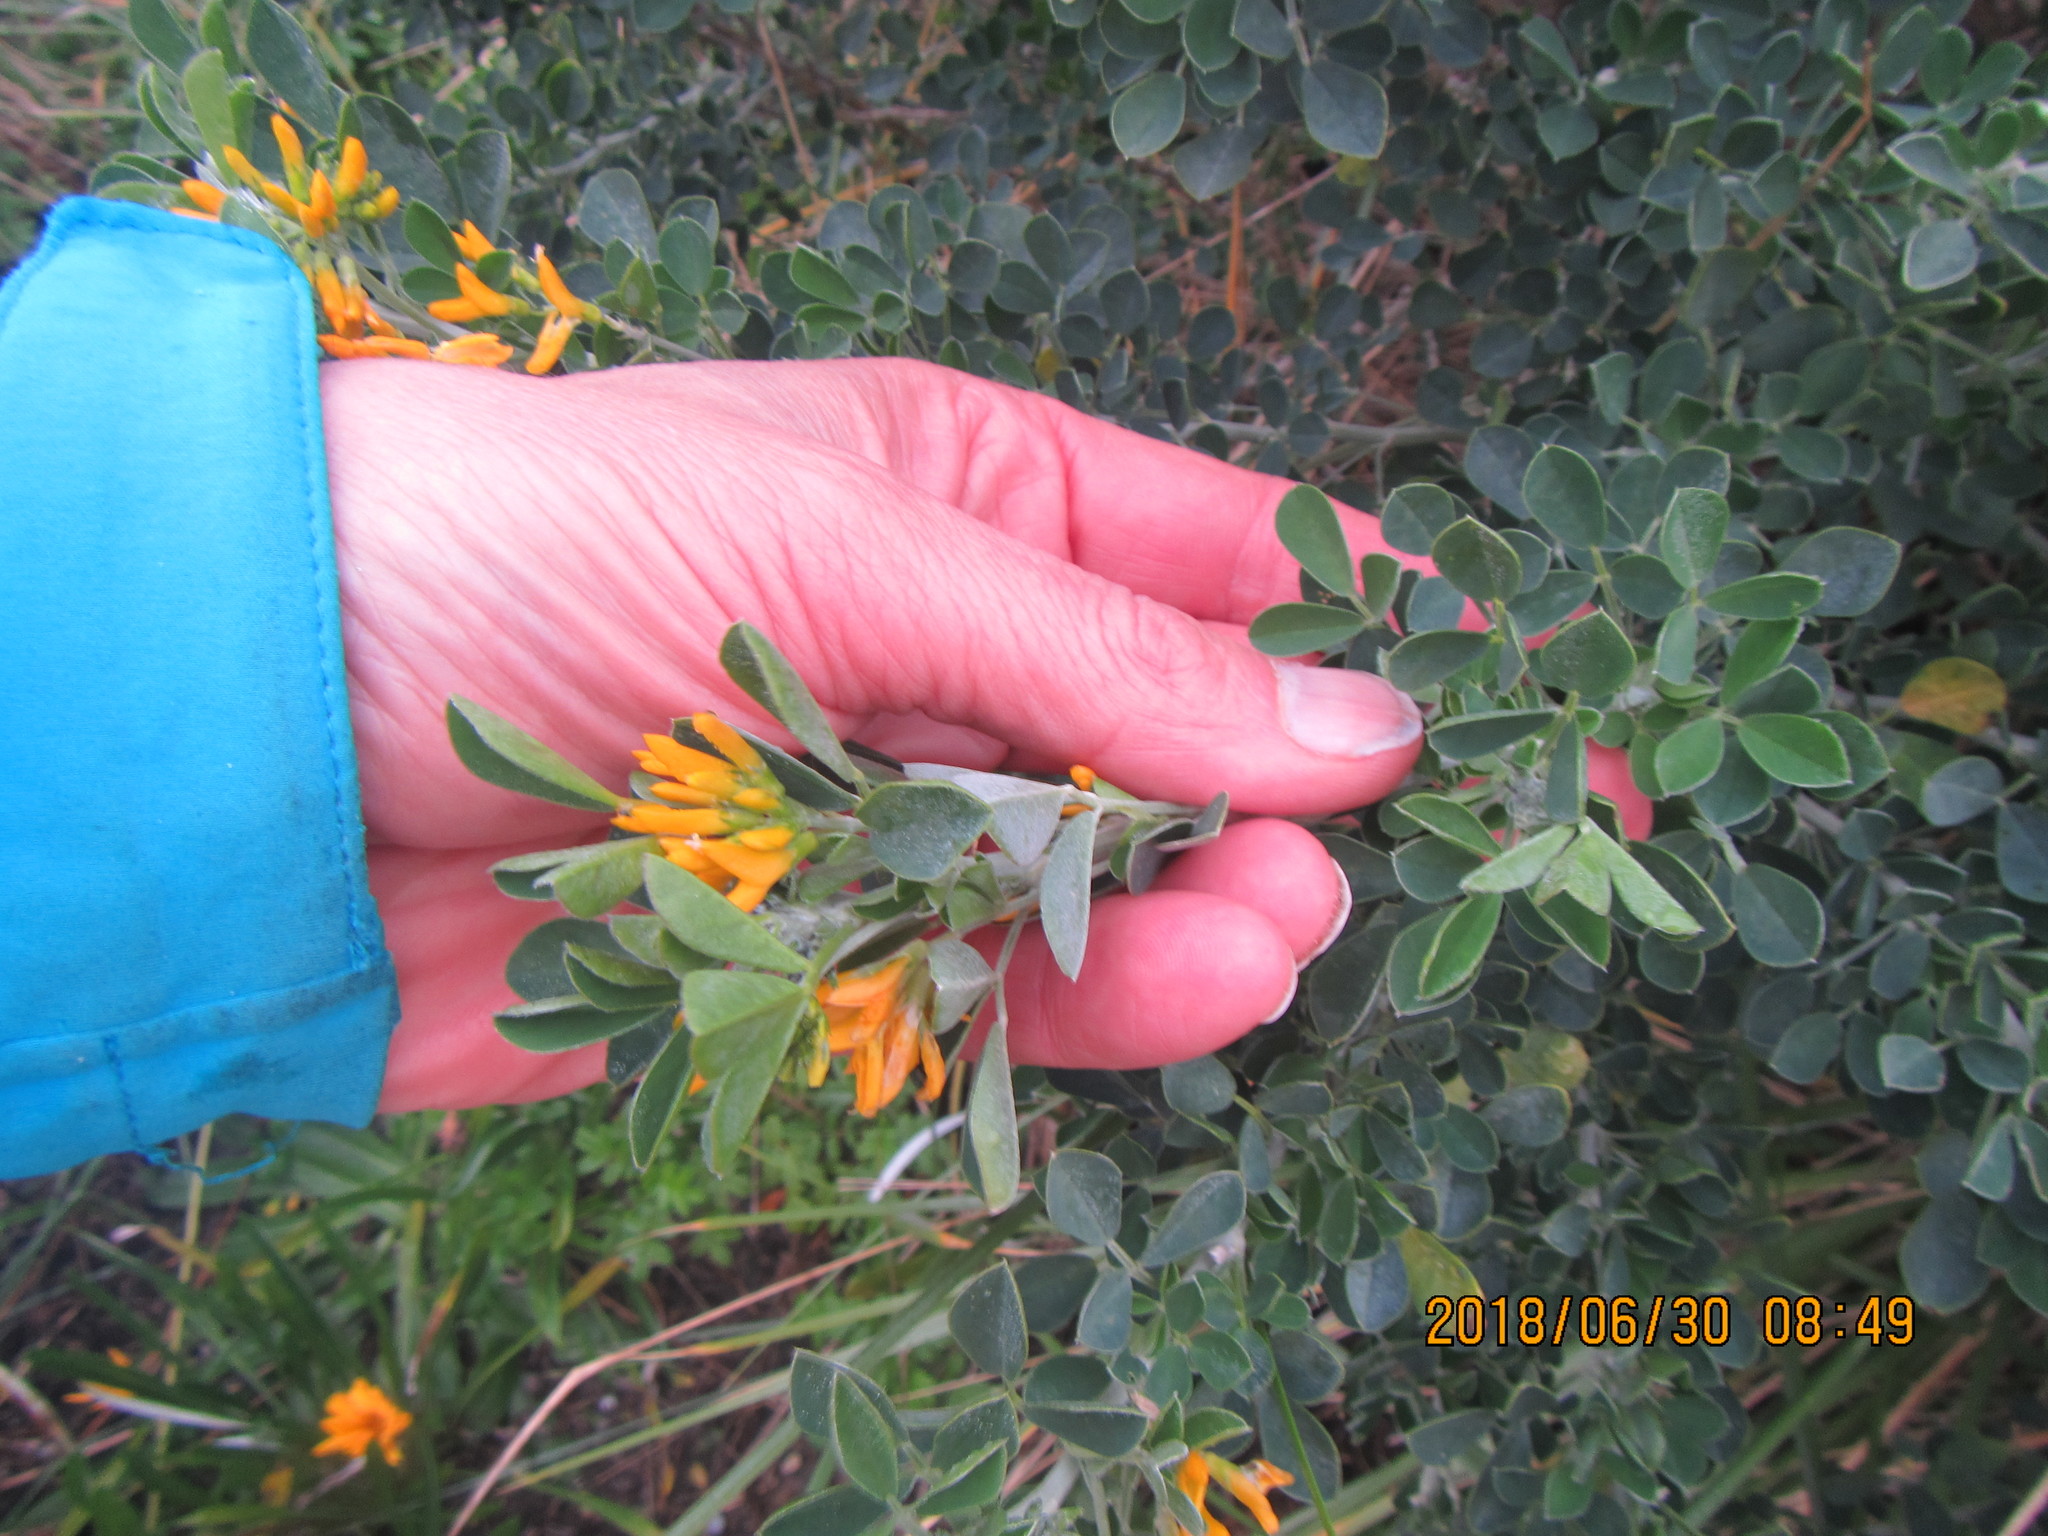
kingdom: Plantae
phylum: Tracheophyta
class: Magnoliopsida
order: Fabales
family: Fabaceae
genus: Medicago
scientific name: Medicago arborea
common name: Moon trefoil
